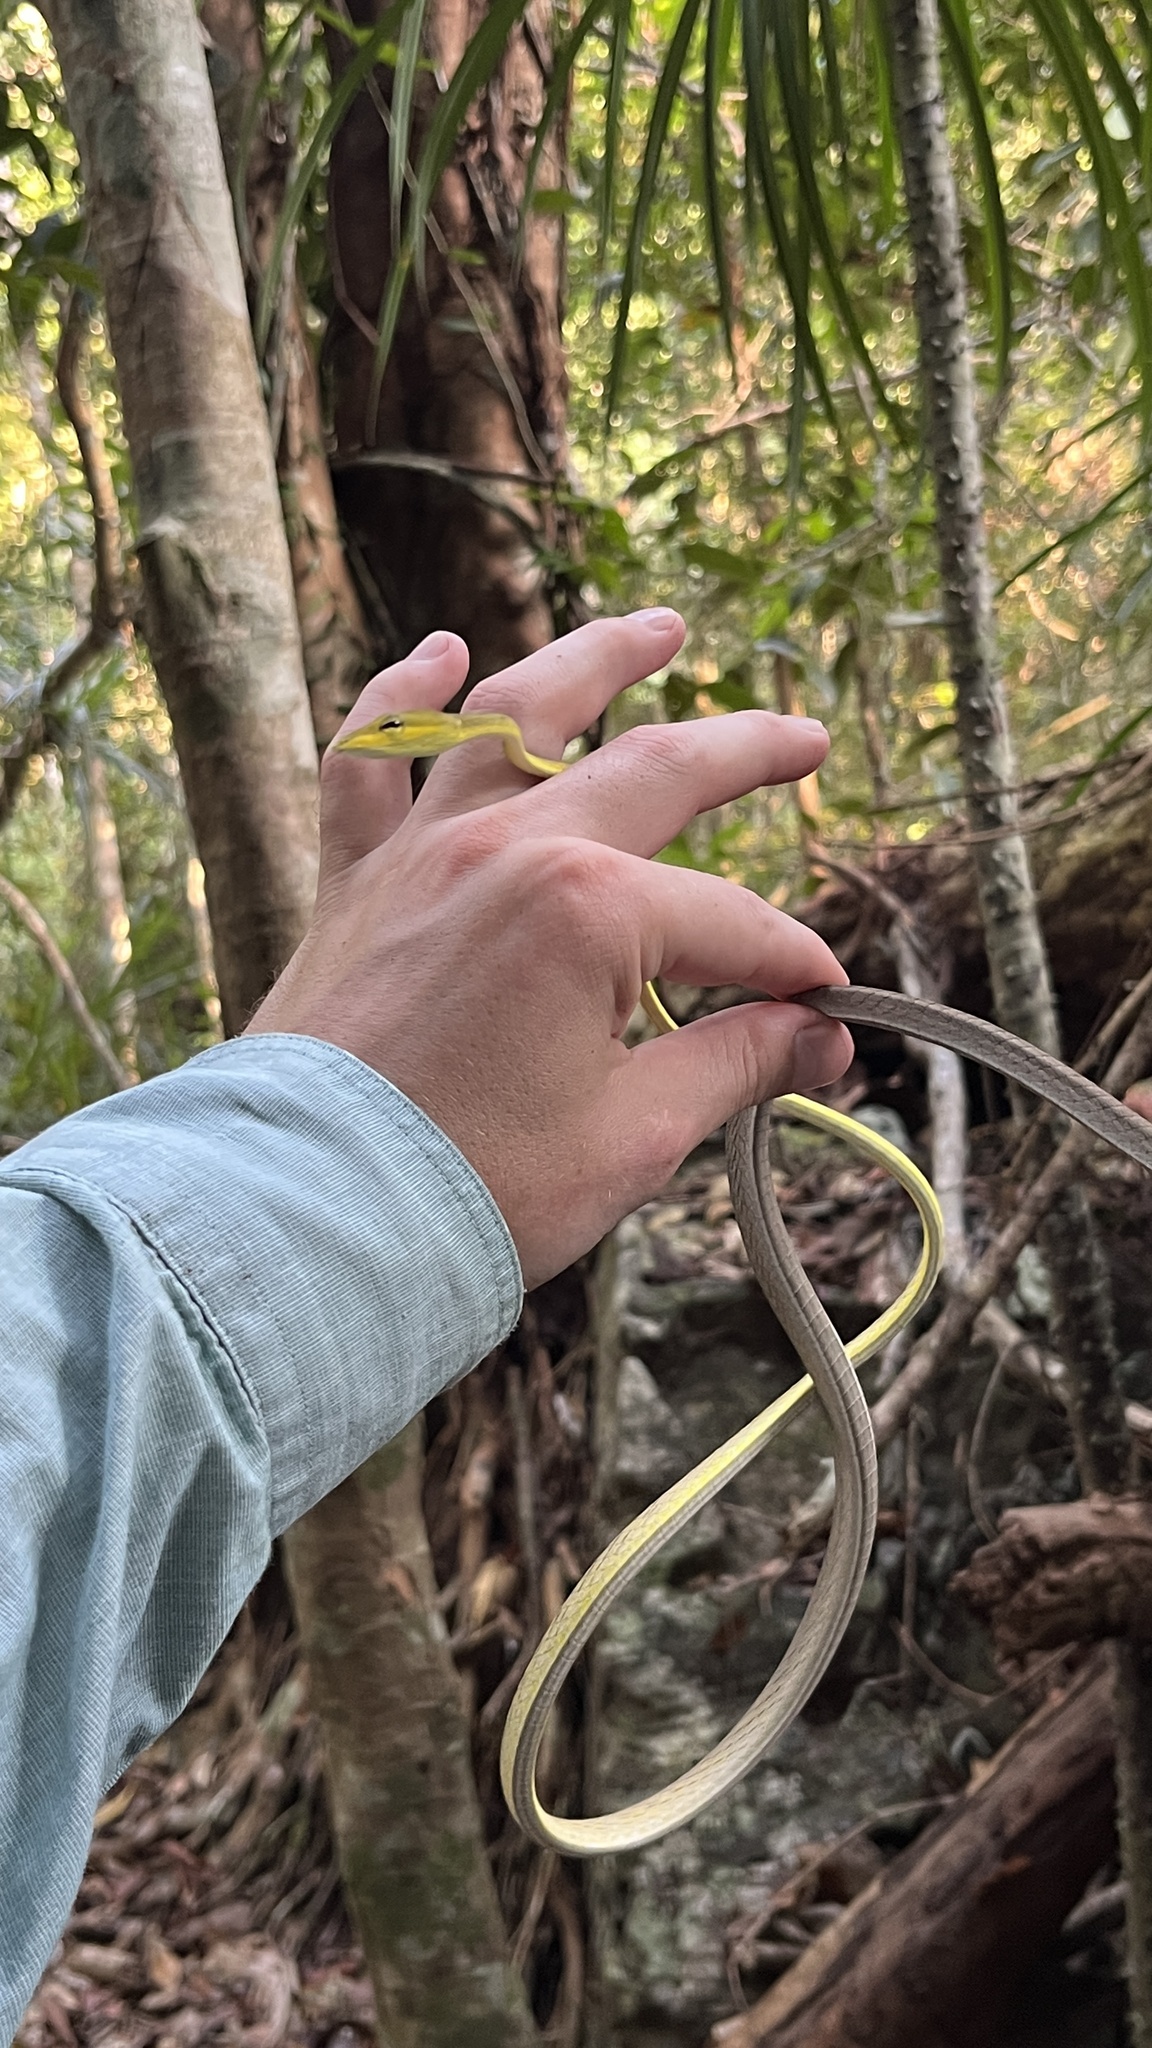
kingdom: Animalia
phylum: Chordata
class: Squamata
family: Colubridae
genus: Ahaetulla
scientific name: Ahaetulla prasina
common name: Oriental whip snake
